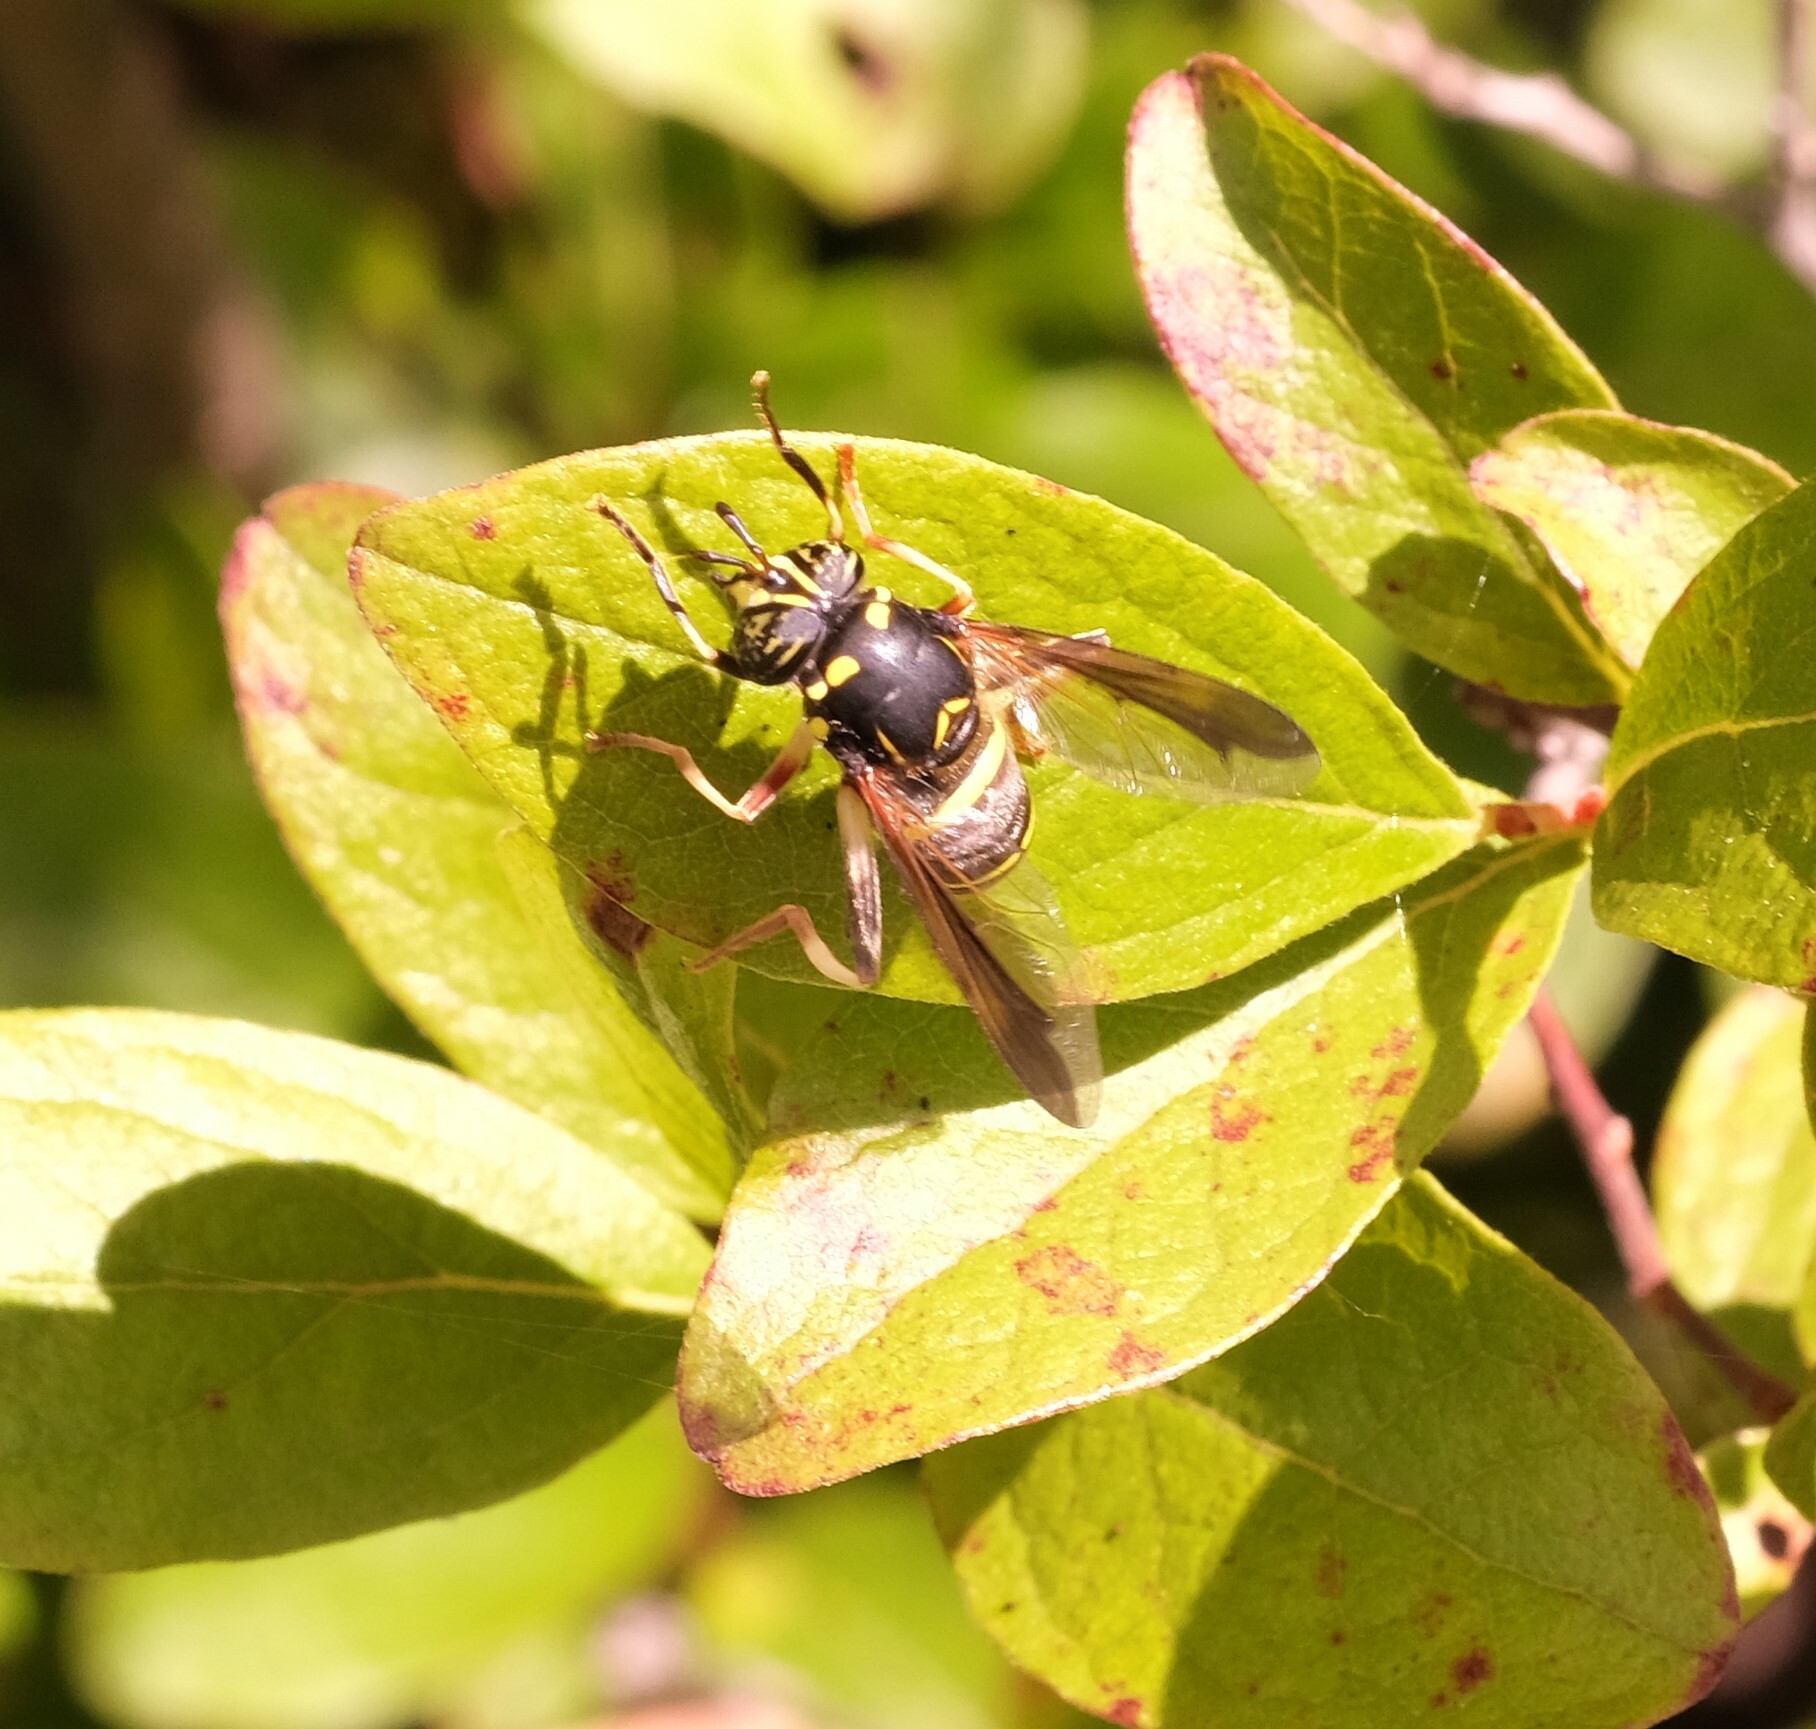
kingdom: Animalia
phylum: Arthropoda
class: Insecta
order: Diptera
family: Syrphidae
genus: Spilomyia
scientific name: Spilomyia sayi
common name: Four-lined hornet fly
